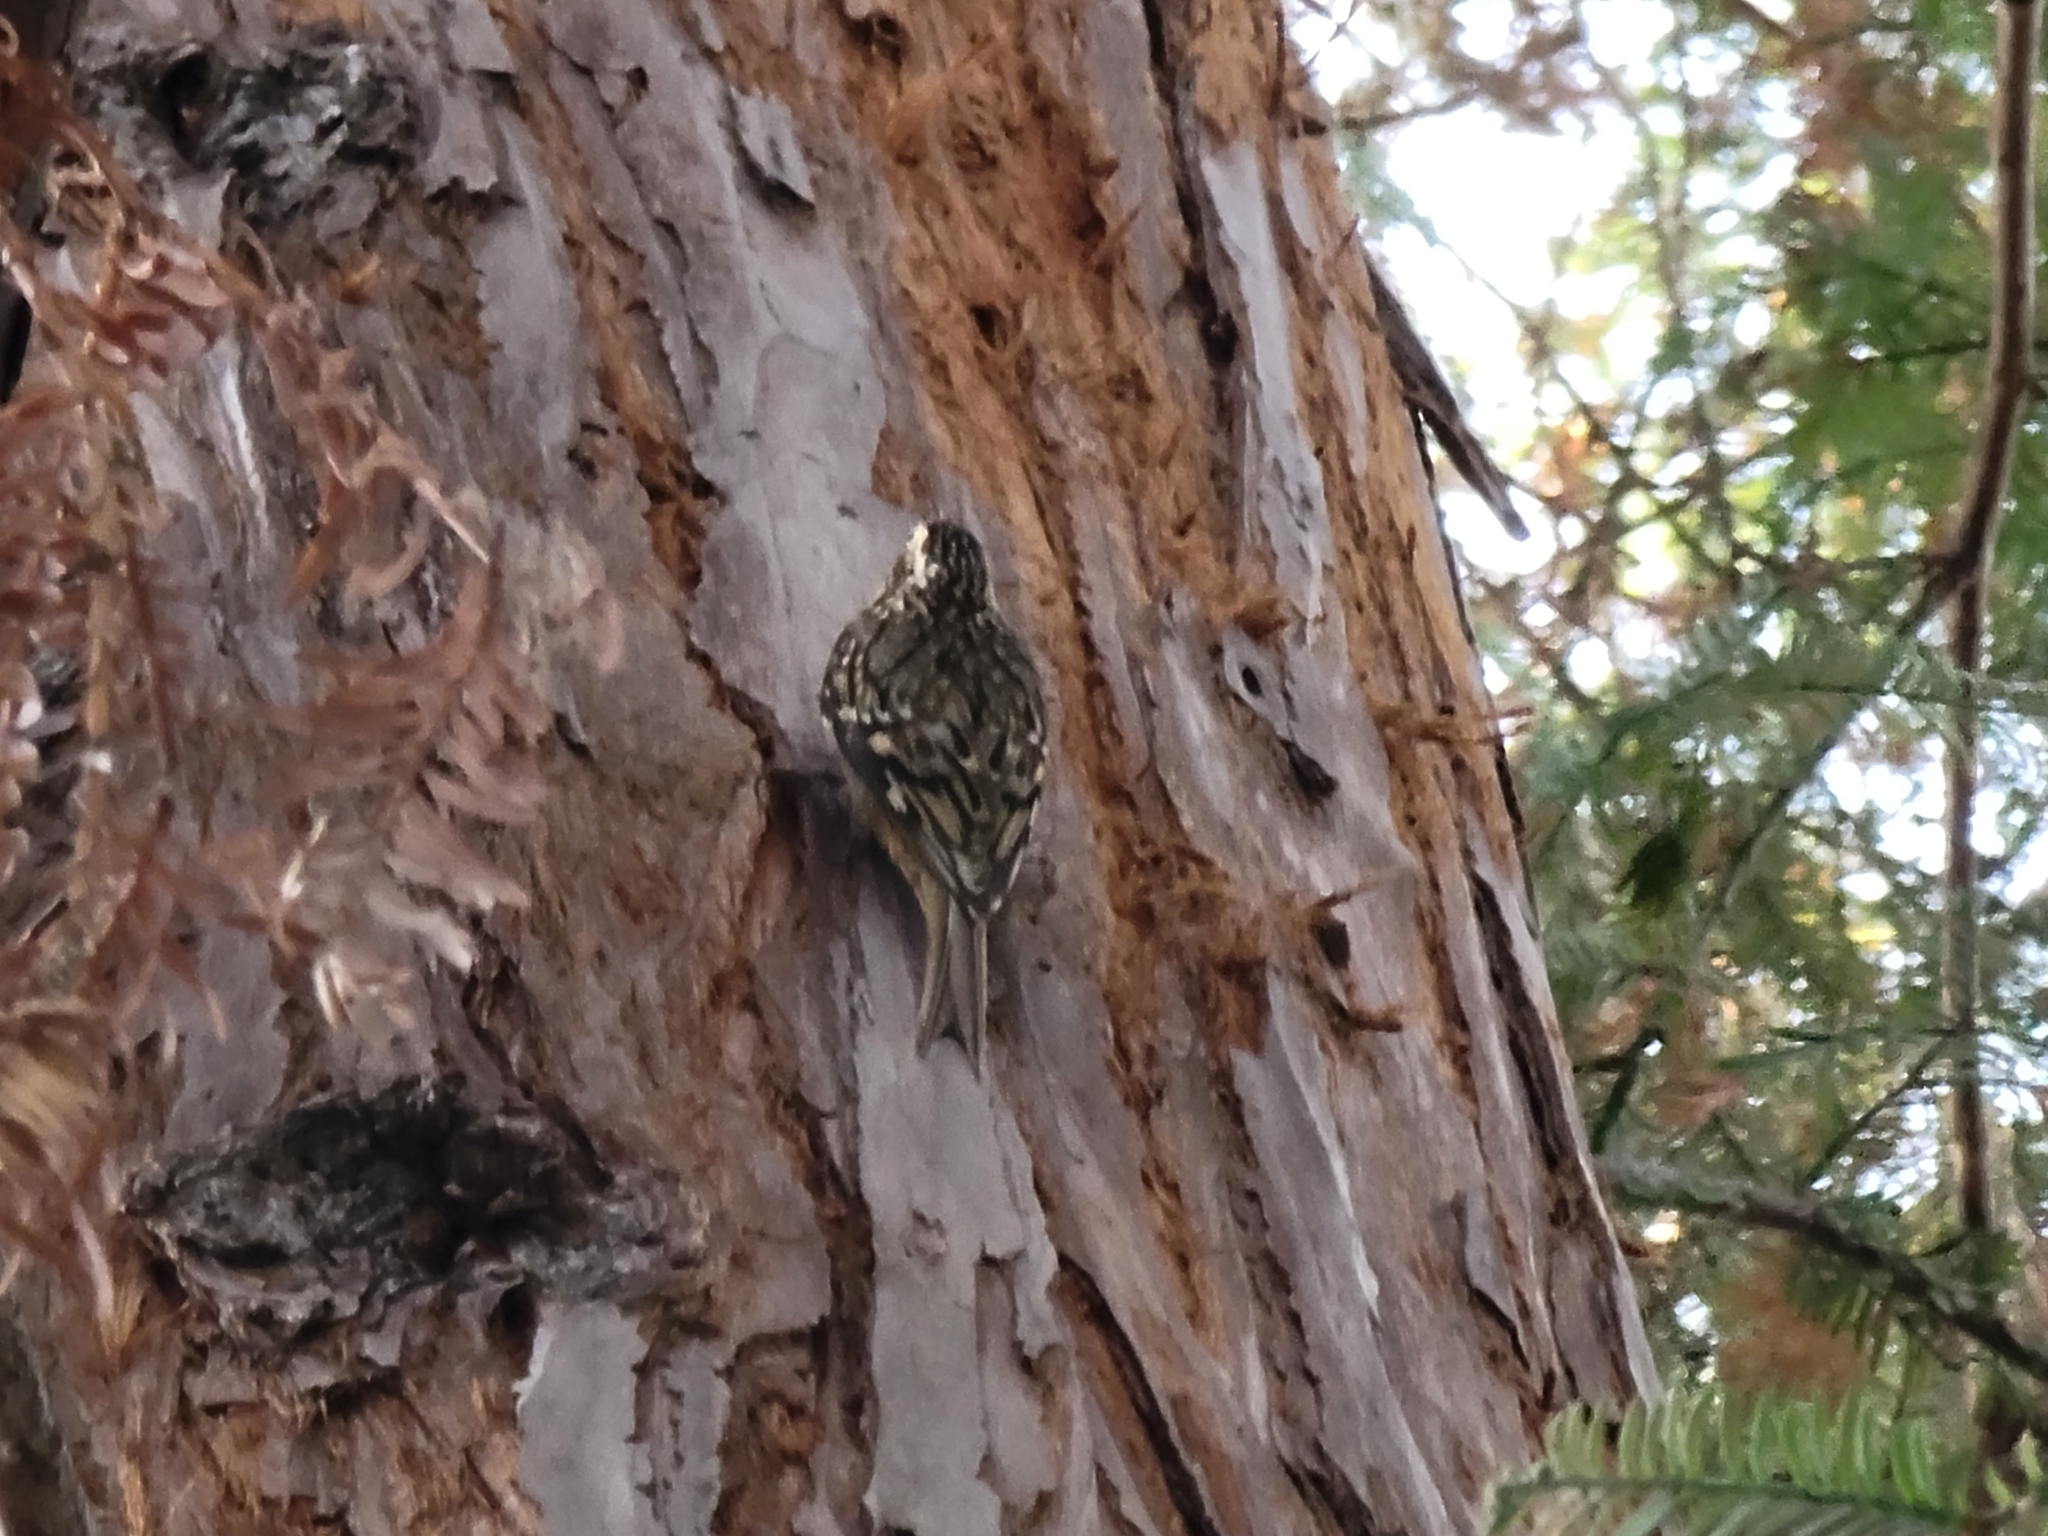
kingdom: Animalia
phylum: Chordata
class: Aves
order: Passeriformes
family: Certhiidae
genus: Certhia
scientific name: Certhia americana
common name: Brown creeper
